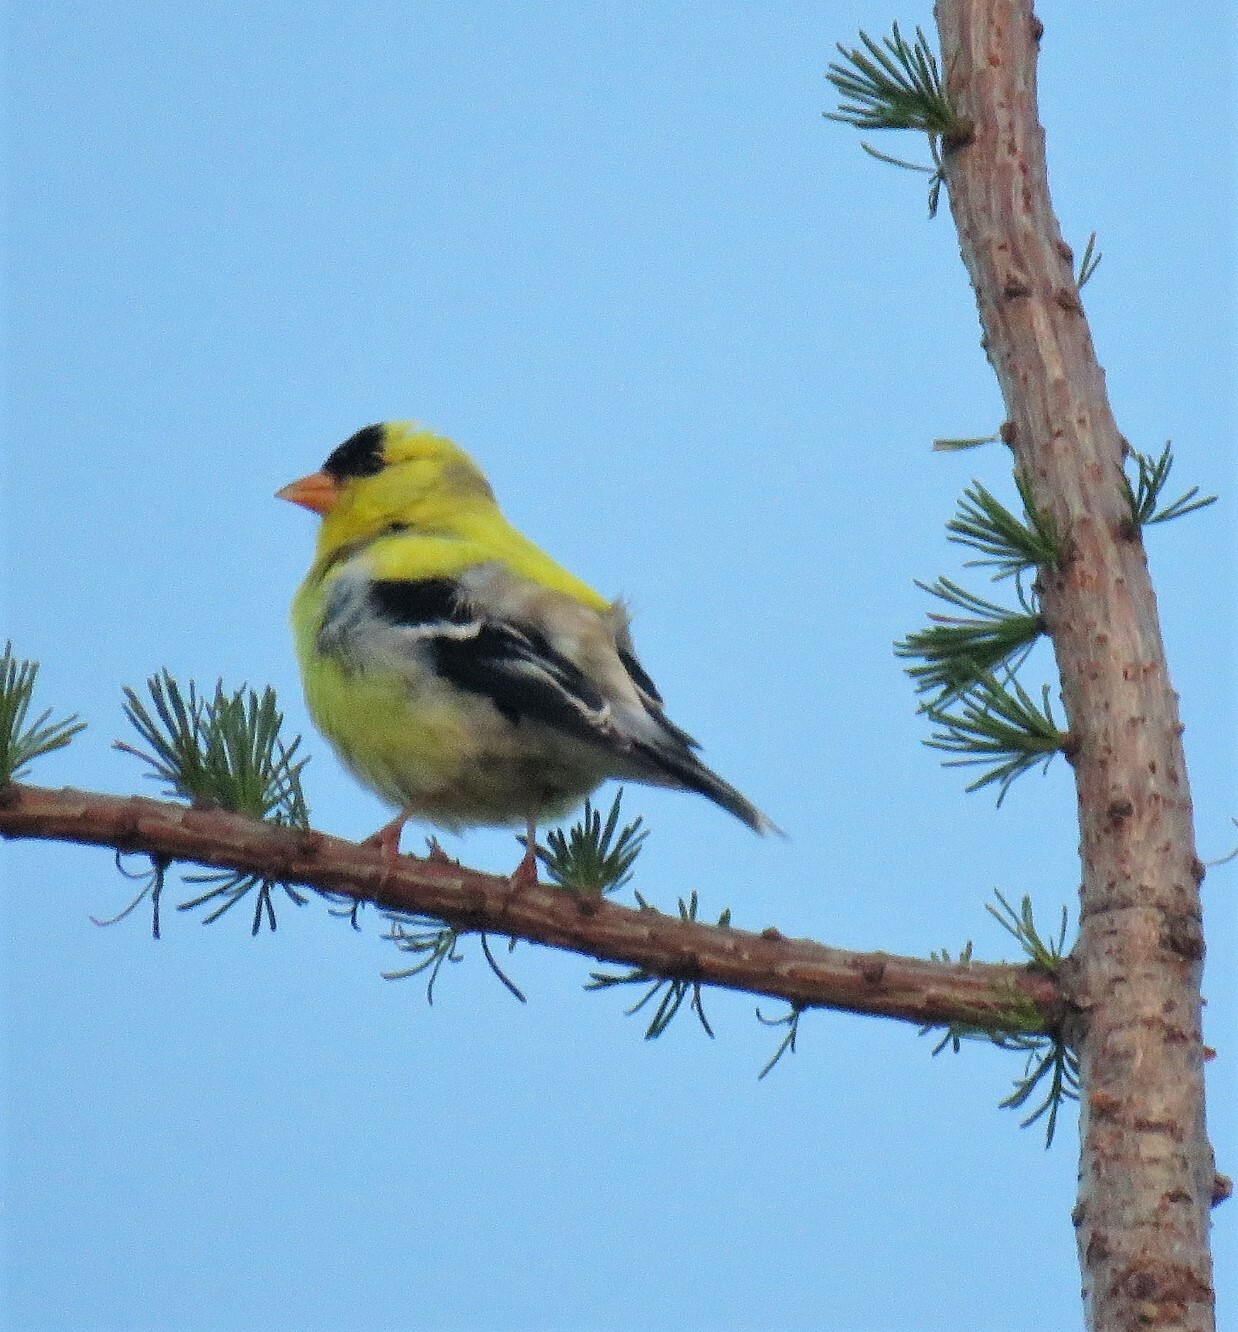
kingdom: Animalia
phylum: Chordata
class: Aves
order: Passeriformes
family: Fringillidae
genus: Spinus
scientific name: Spinus tristis
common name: American goldfinch
